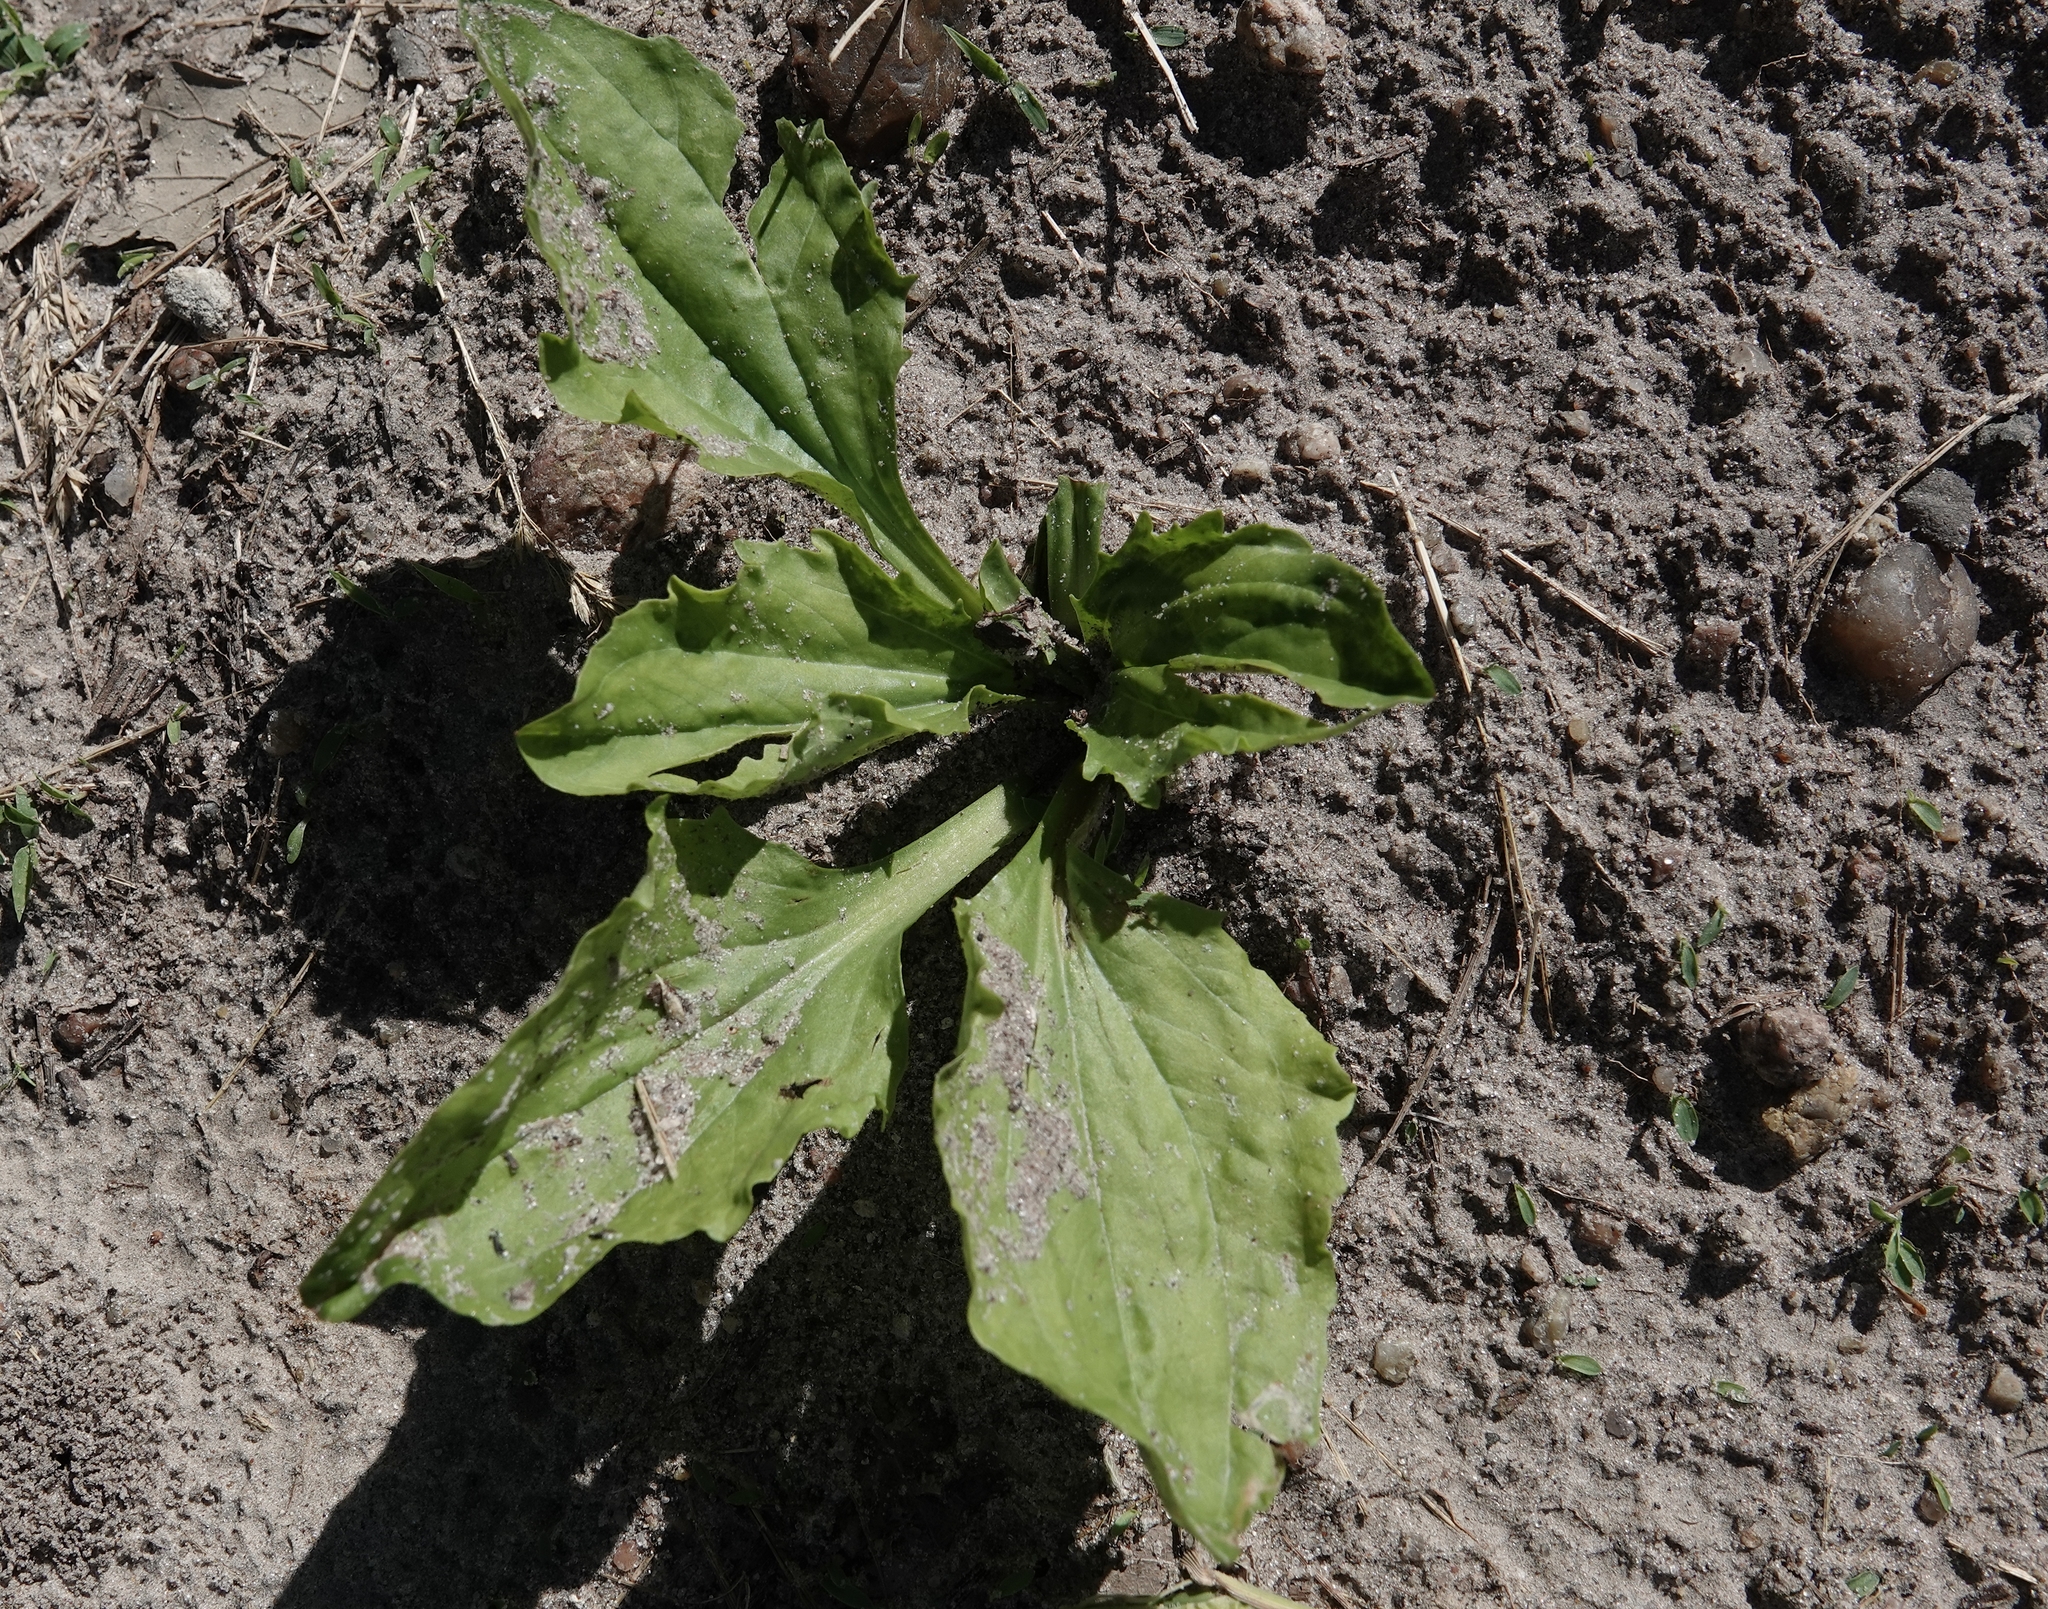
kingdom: Plantae
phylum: Tracheophyta
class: Magnoliopsida
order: Lamiales
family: Plantaginaceae
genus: Plantago
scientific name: Plantago major
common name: Common plantain
